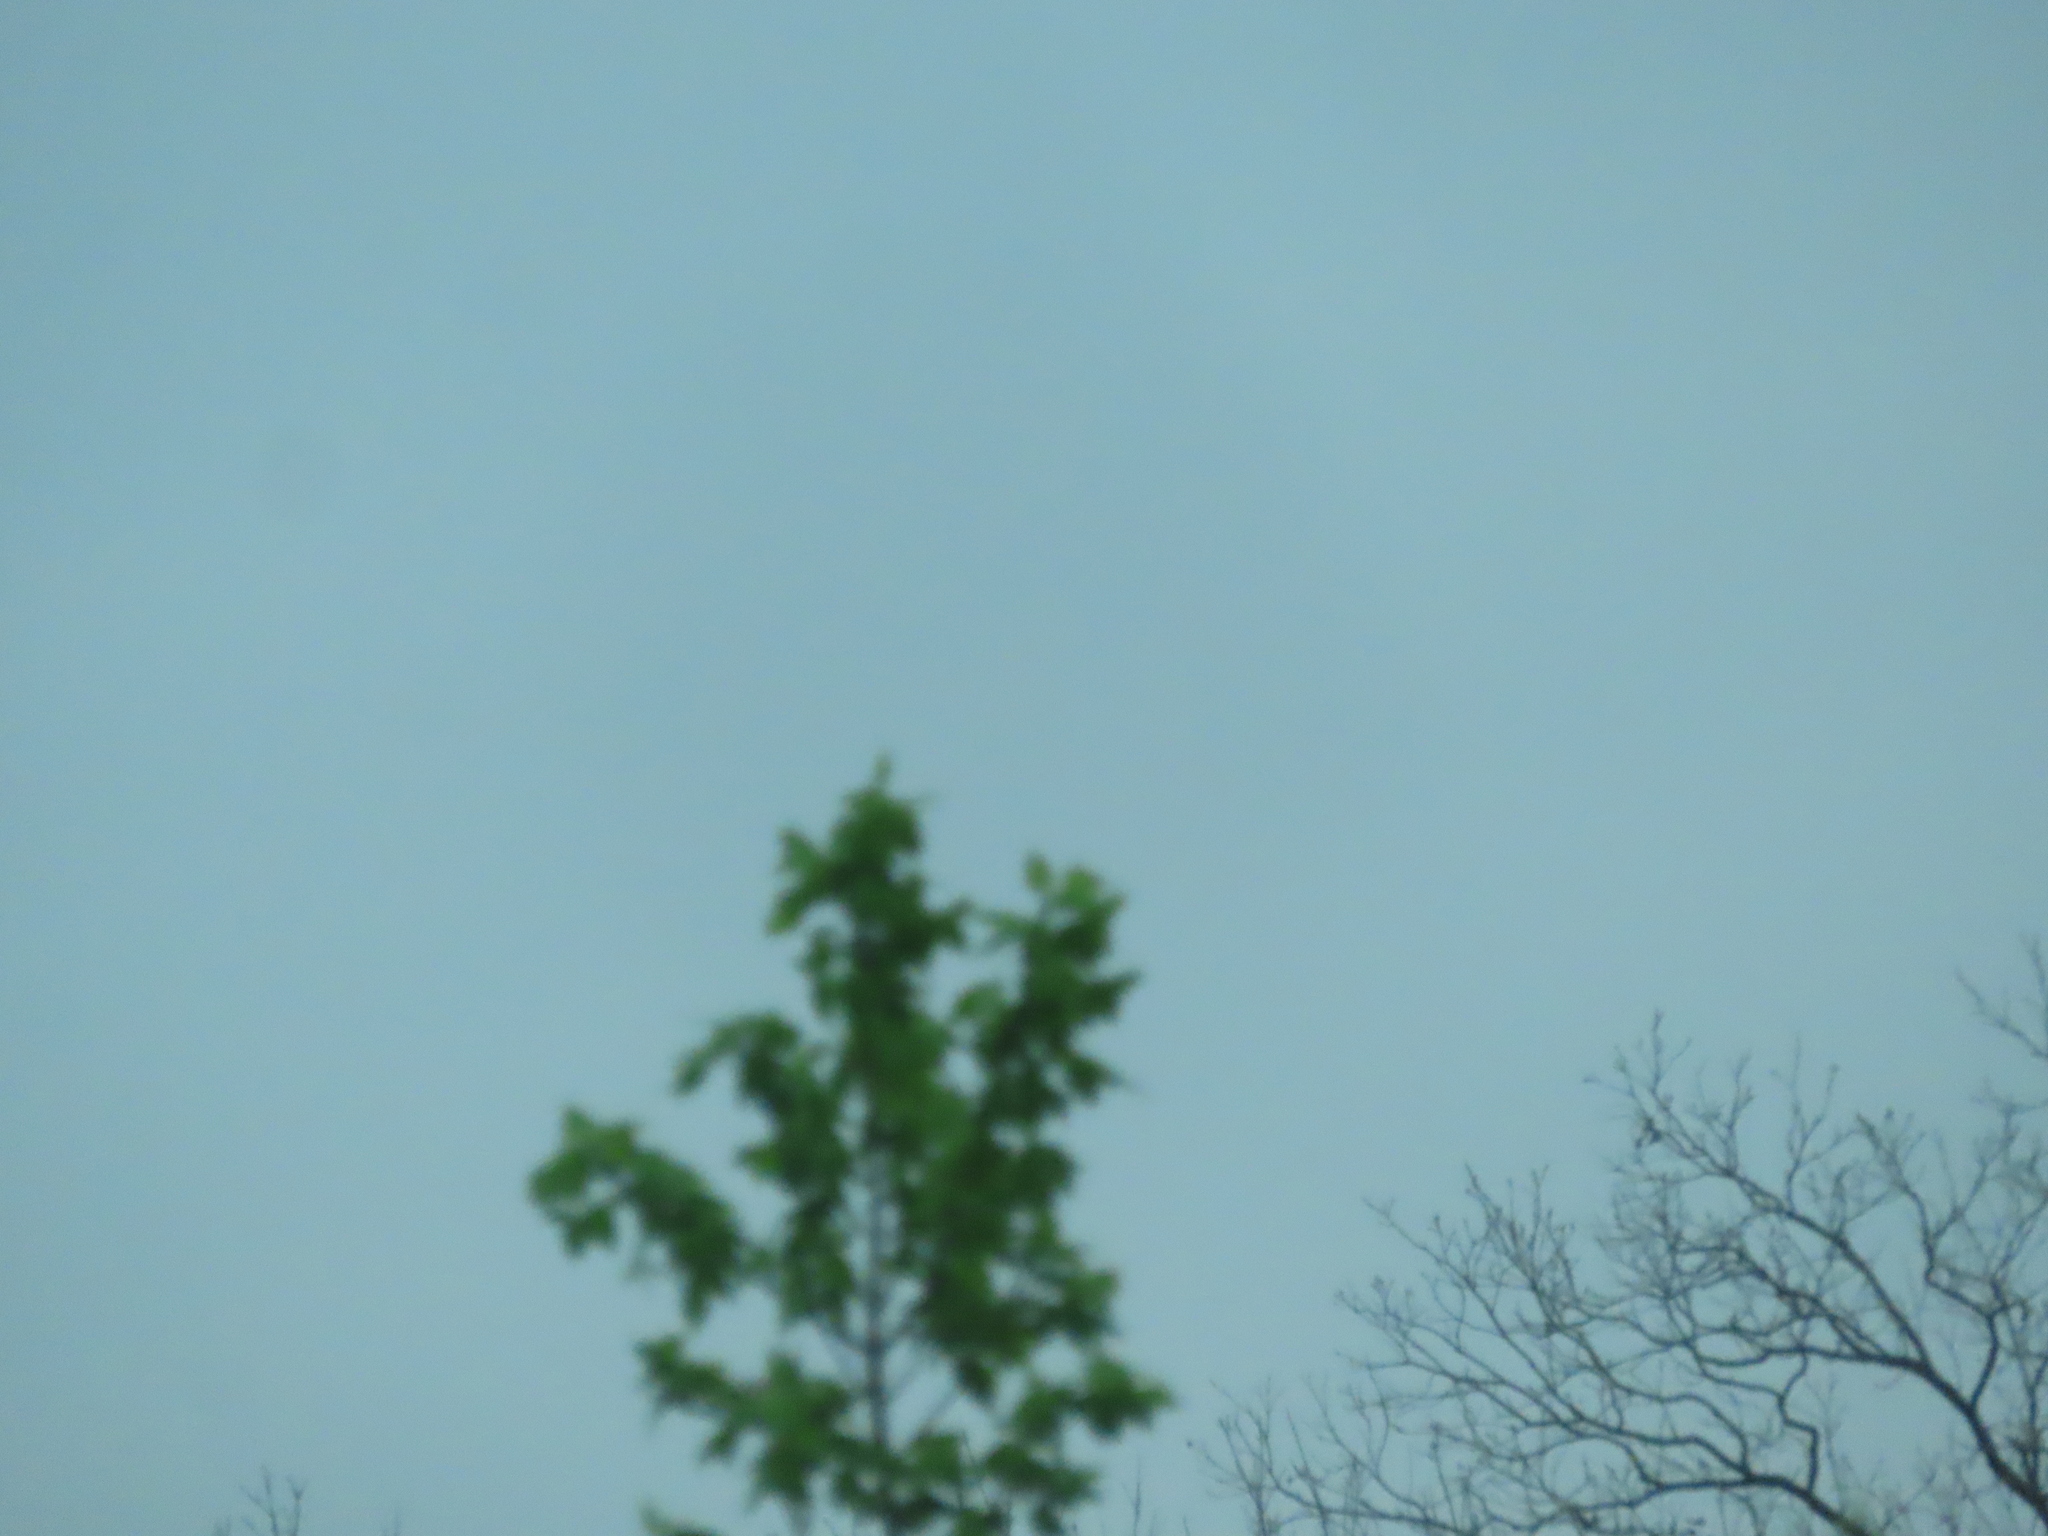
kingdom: Plantae
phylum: Tracheophyta
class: Magnoliopsida
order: Sapindales
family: Sapindaceae
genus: Acer
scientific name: Acer negundo
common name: Ashleaf maple
